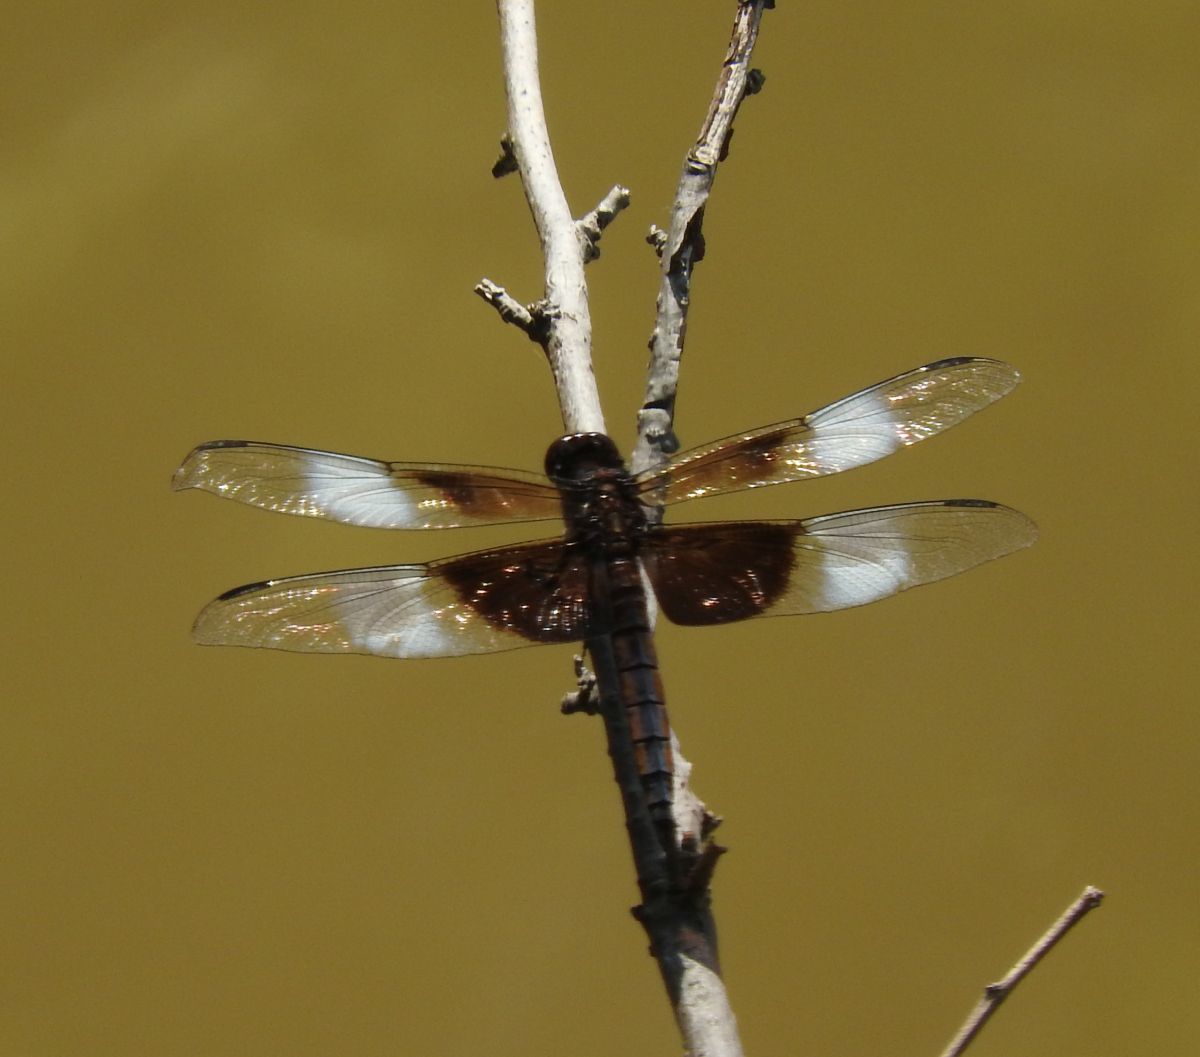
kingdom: Animalia
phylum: Arthropoda
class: Insecta
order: Odonata
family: Libellulidae
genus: Libellula
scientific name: Libellula luctuosa
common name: Widow skimmer
